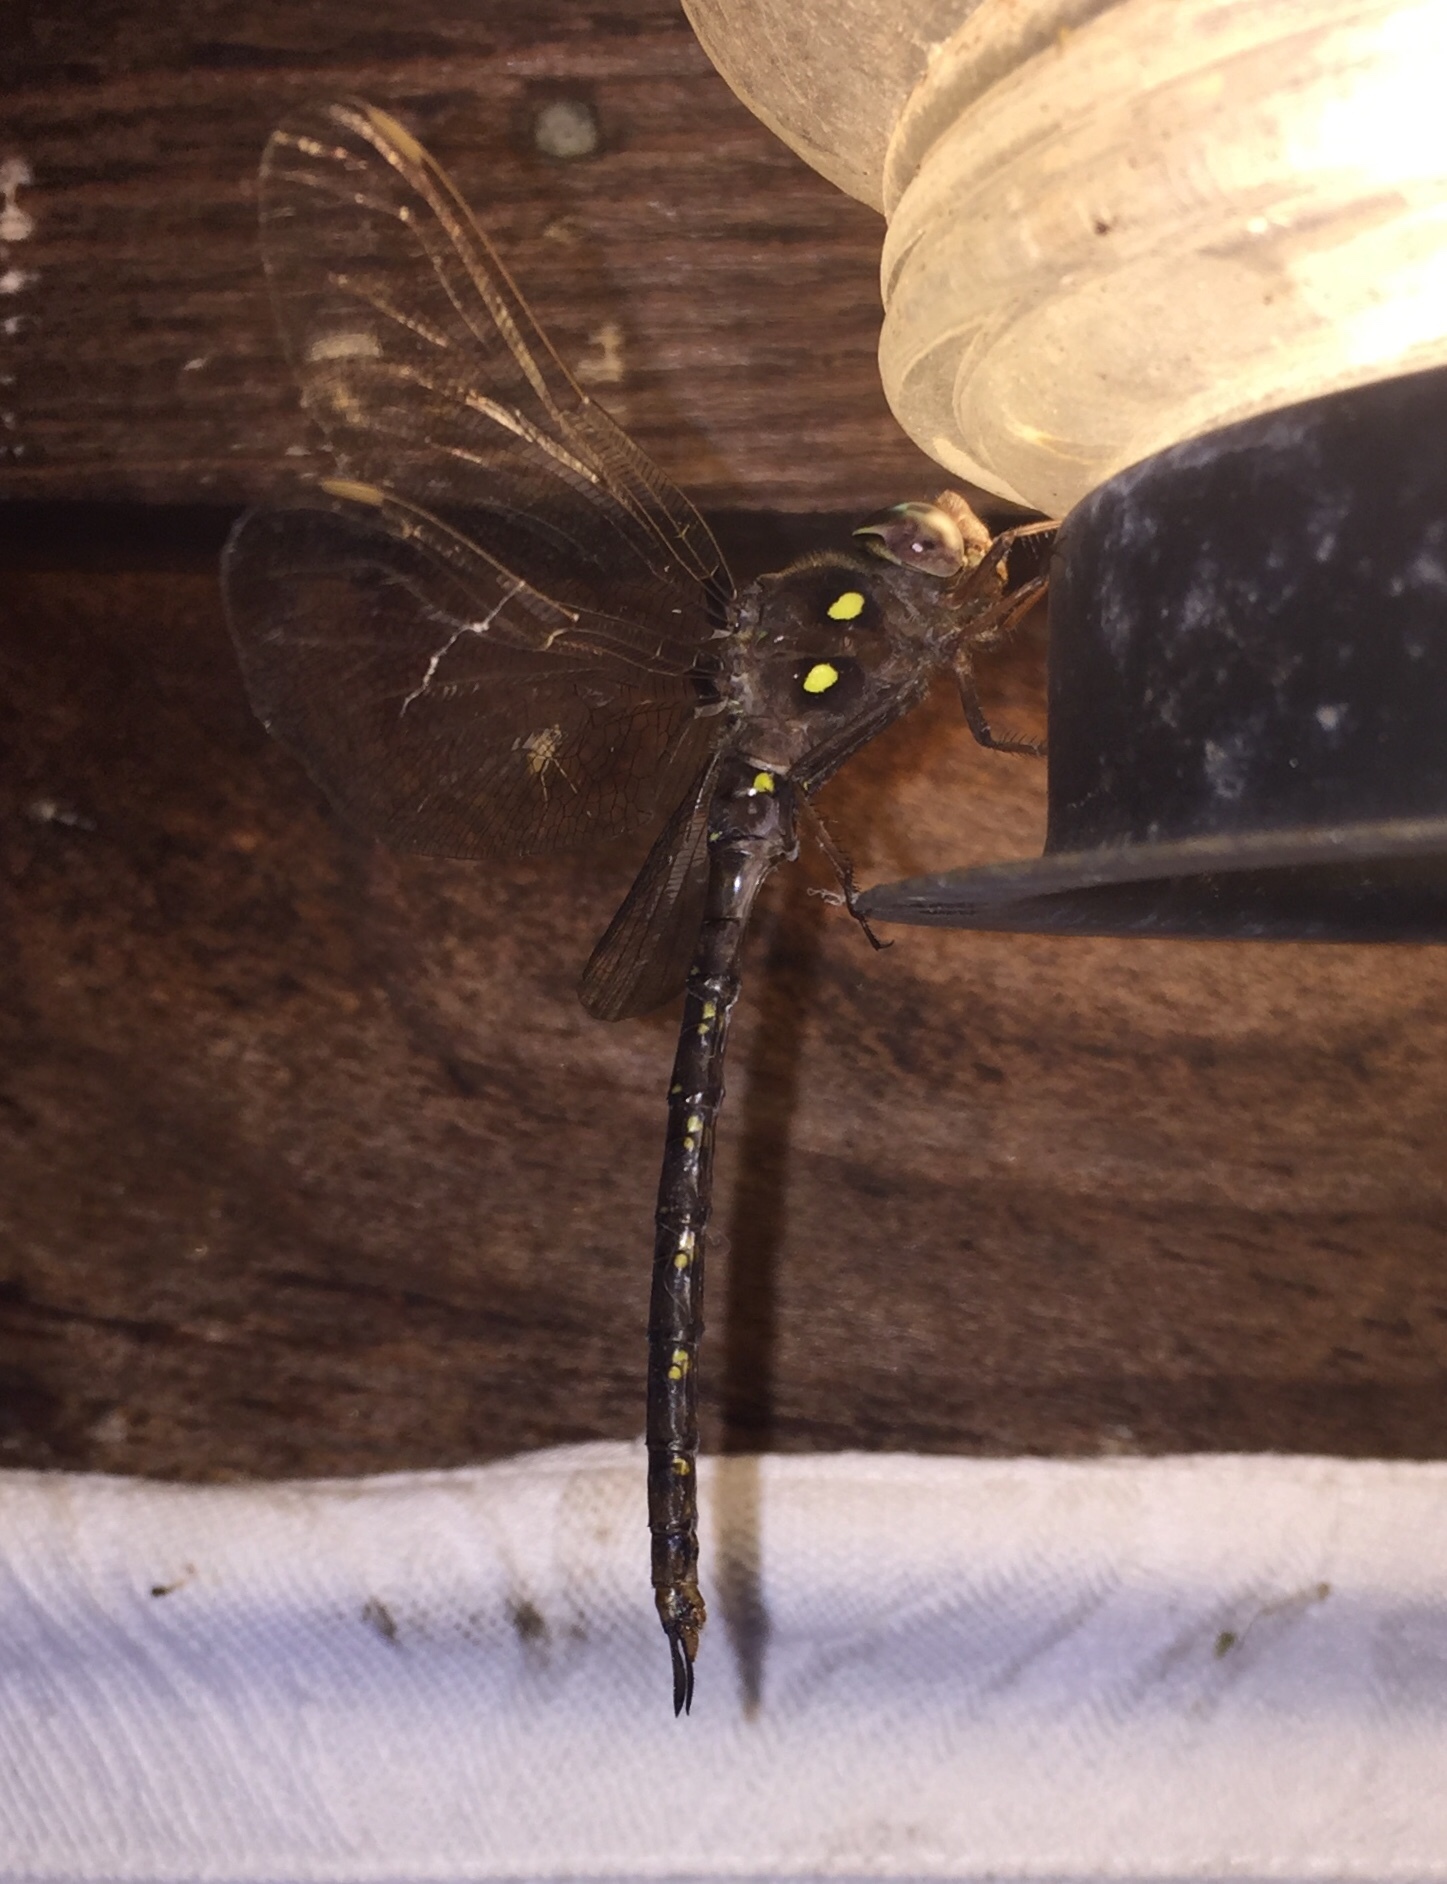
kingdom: Animalia
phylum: Arthropoda
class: Insecta
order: Odonata
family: Aeshnidae
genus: Boyeria
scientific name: Boyeria vinosa
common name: Fawn darner
